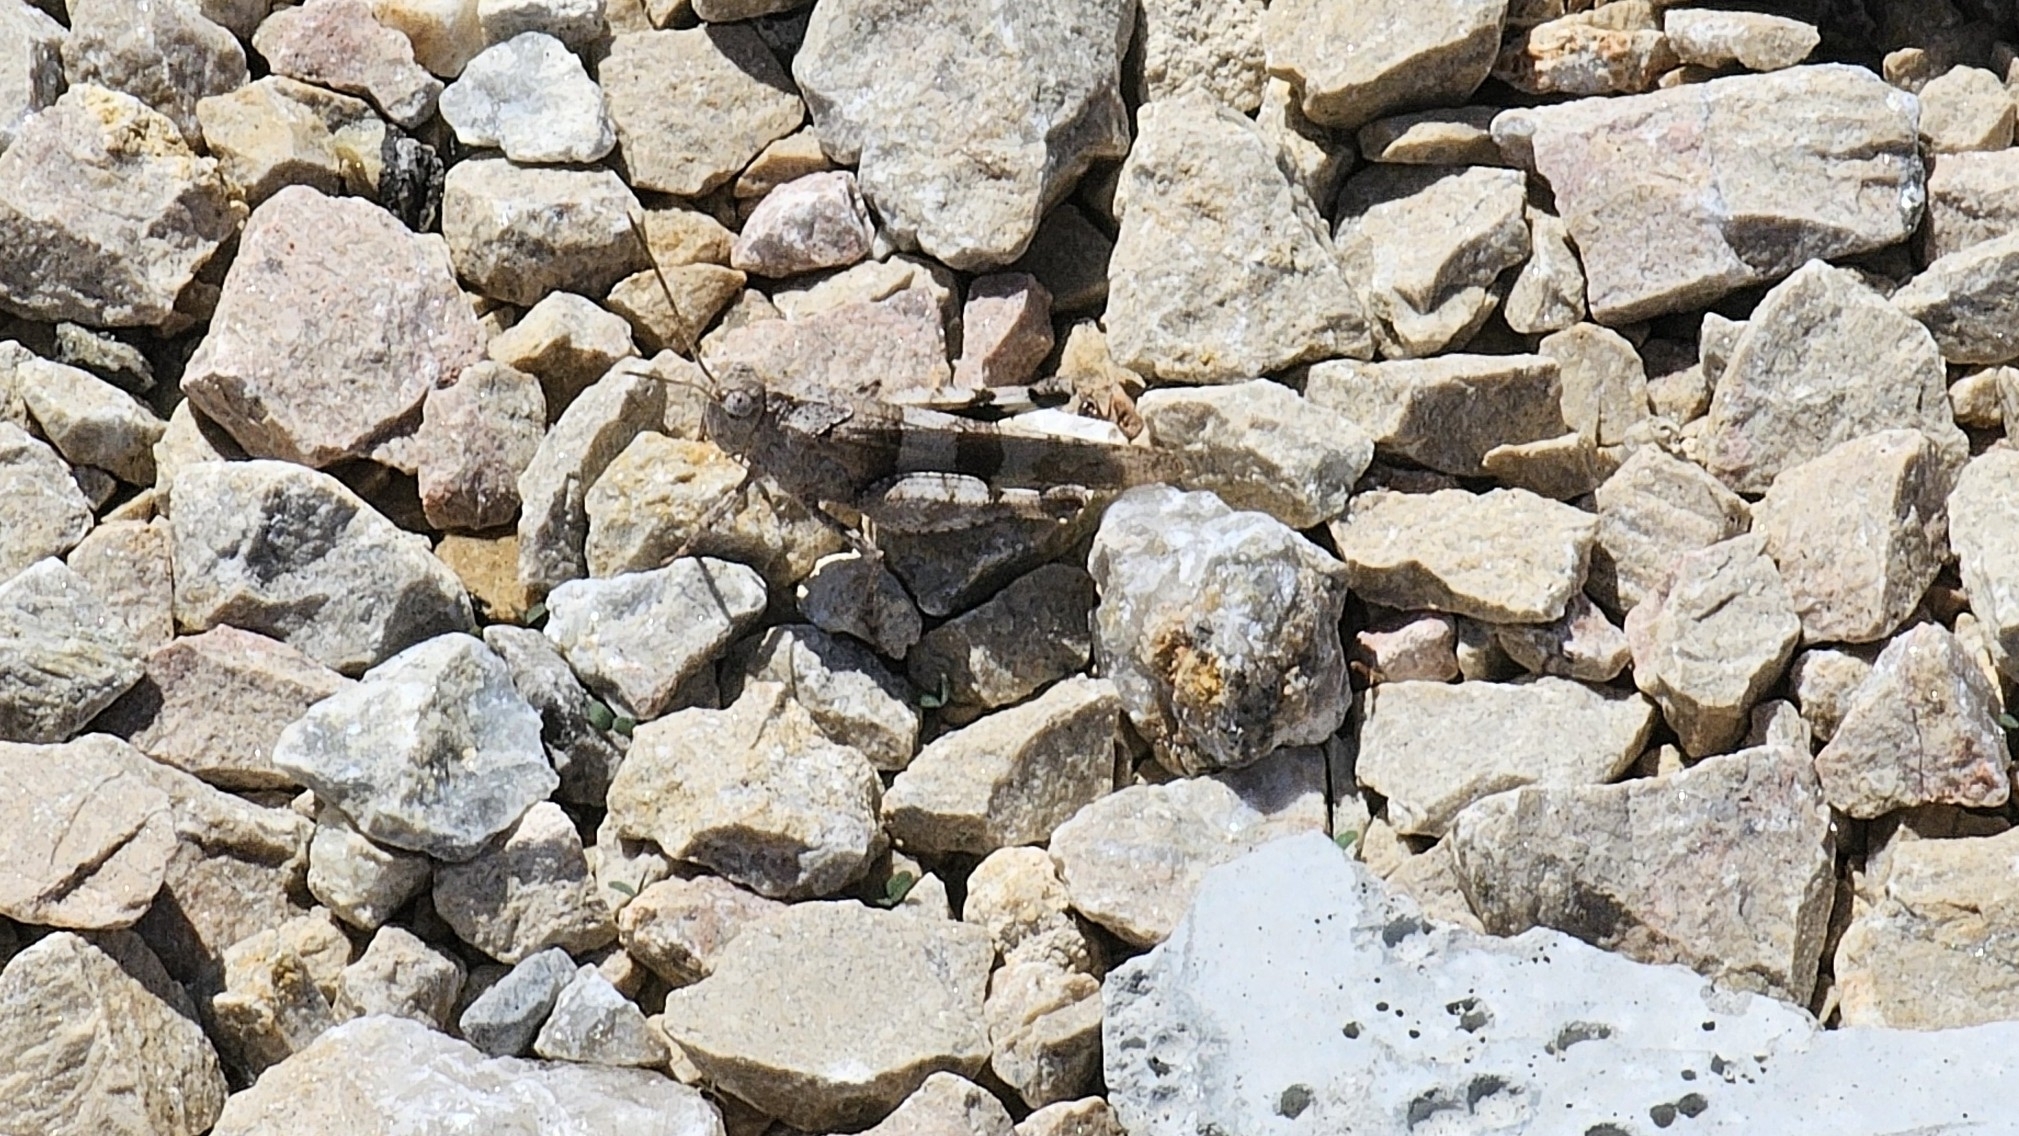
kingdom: Animalia
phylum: Arthropoda
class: Insecta
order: Orthoptera
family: Acrididae
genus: Oedipoda
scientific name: Oedipoda caerulescens
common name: Blue-winged grasshopper
